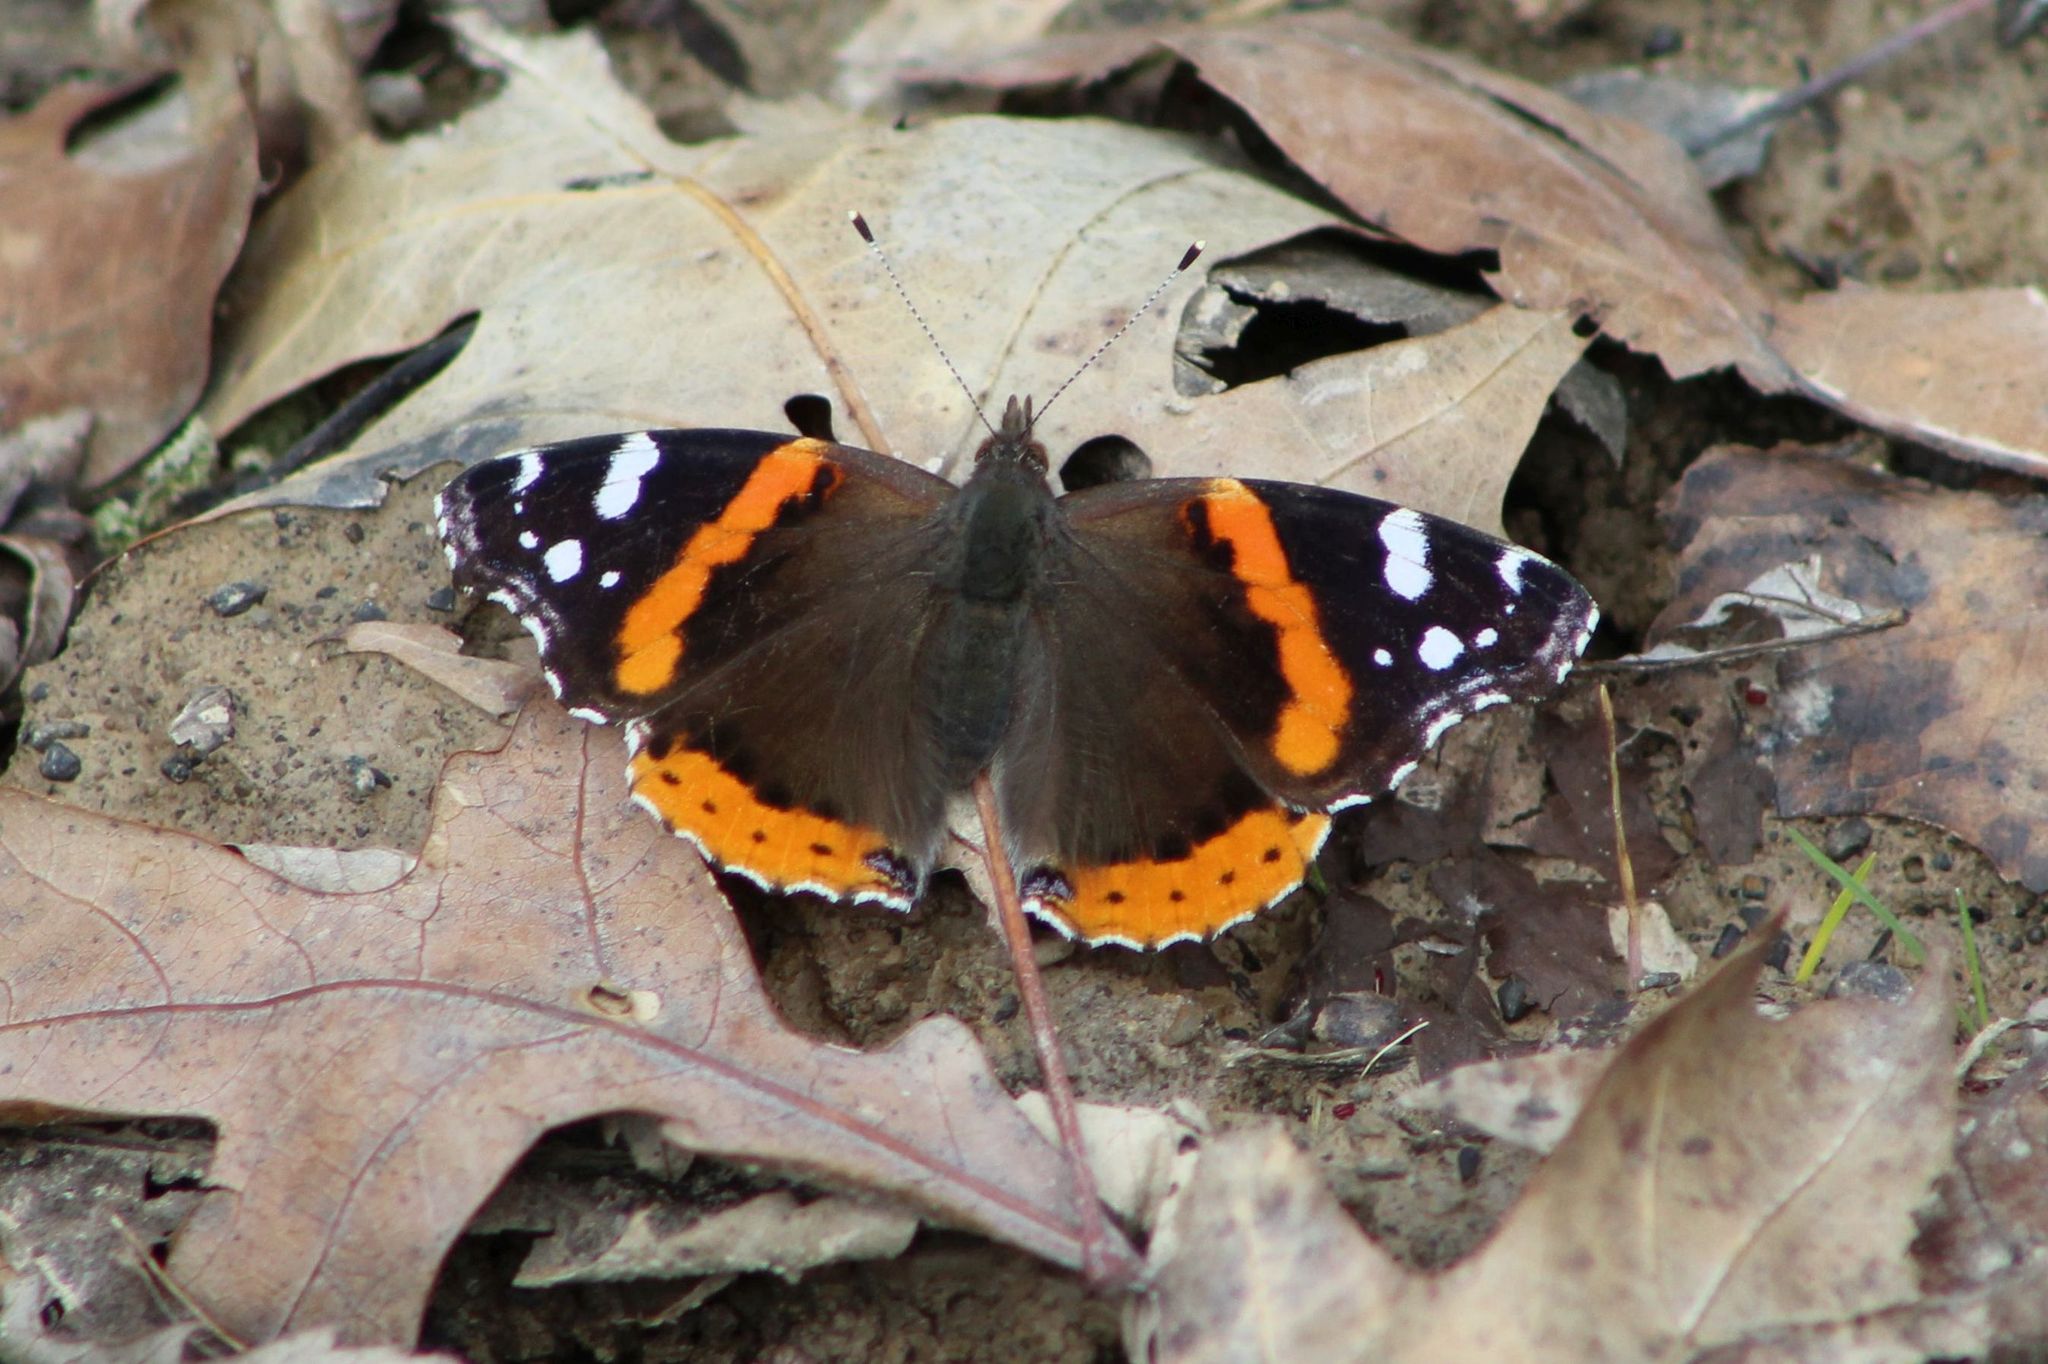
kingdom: Animalia
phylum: Arthropoda
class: Insecta
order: Lepidoptera
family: Nymphalidae
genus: Vanessa
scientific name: Vanessa atalanta
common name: Red admiral
